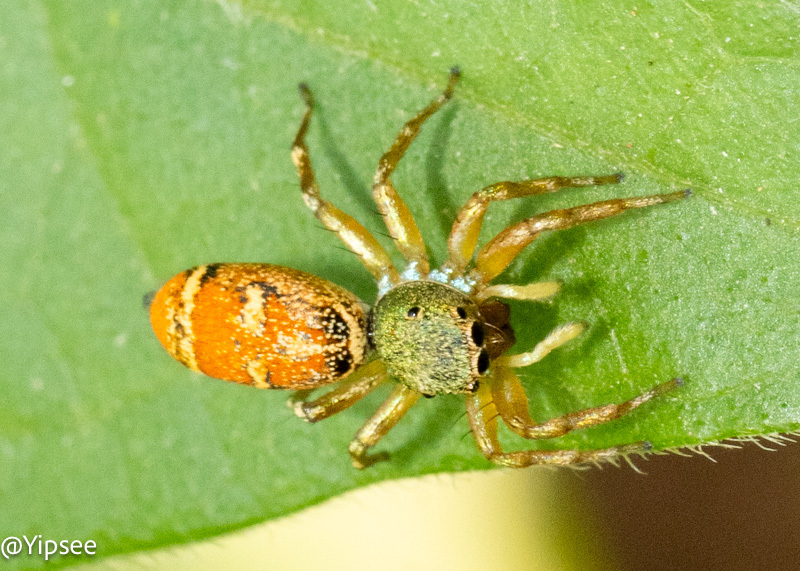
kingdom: Animalia
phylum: Arthropoda
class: Arachnida
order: Araneae
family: Salticidae
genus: Cosmophasis
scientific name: Cosmophasis thalassina
